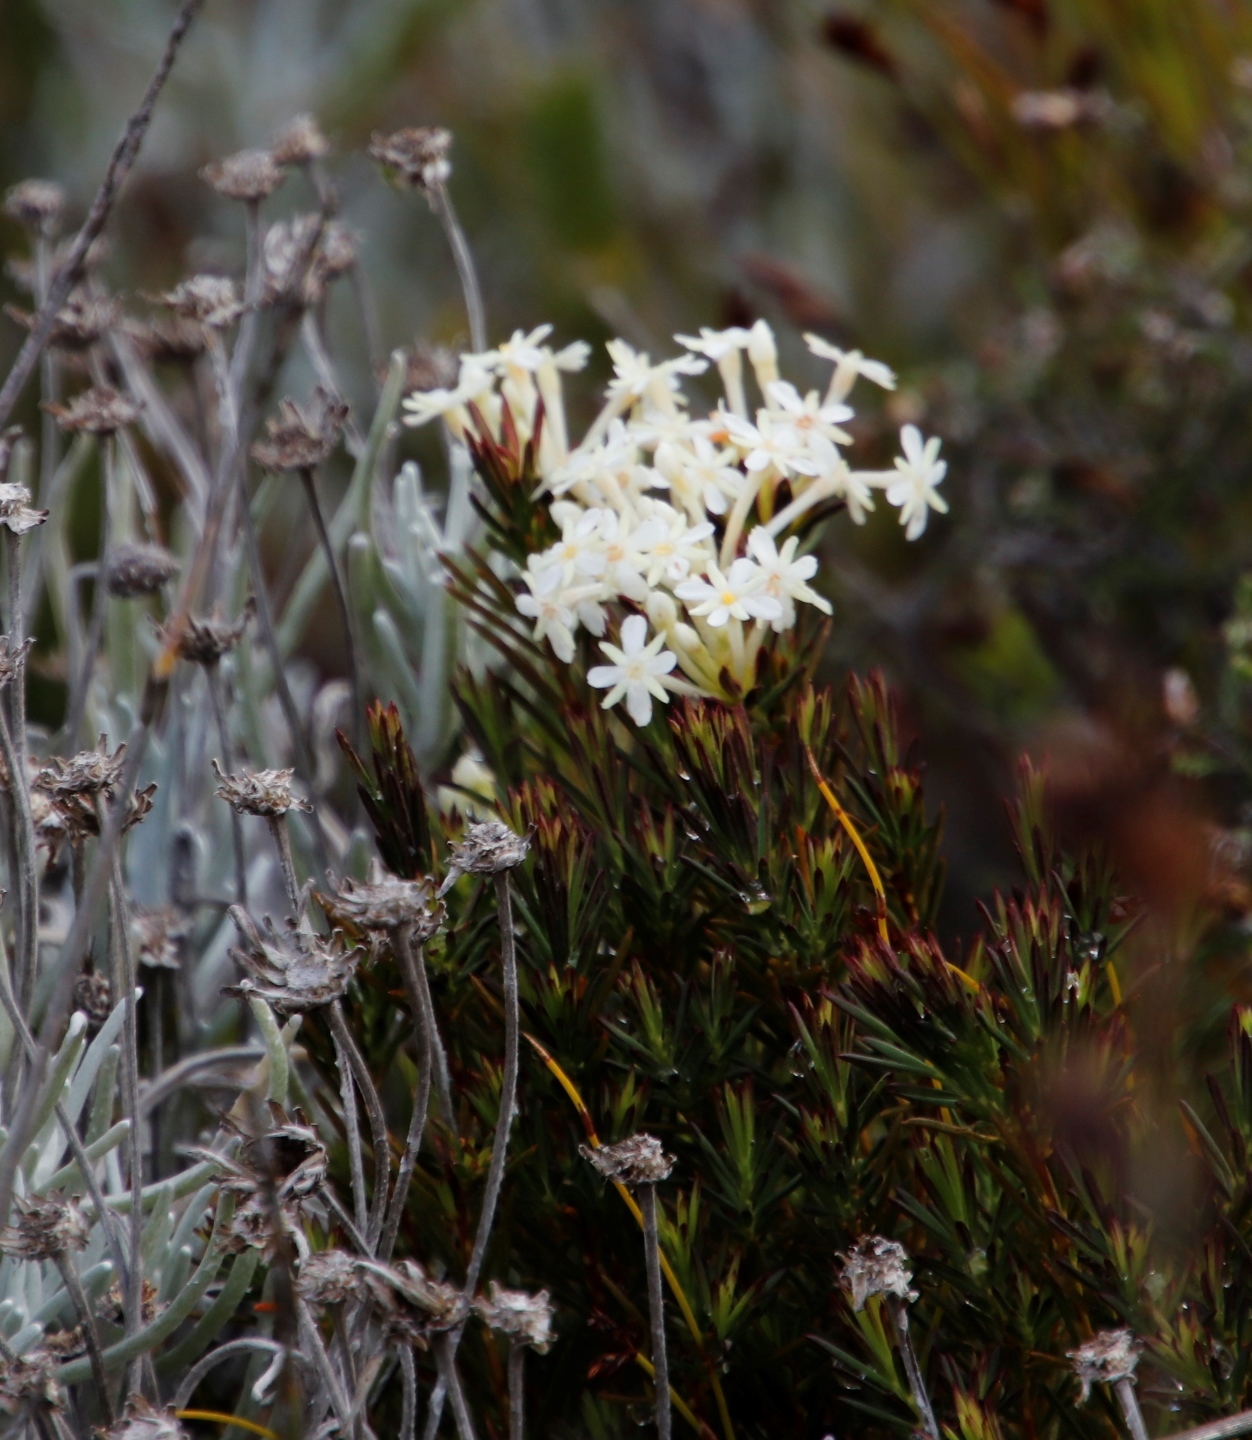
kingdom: Plantae
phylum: Tracheophyta
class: Magnoliopsida
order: Malvales
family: Thymelaeaceae
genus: Gnidia
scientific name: Gnidia pinifolia
